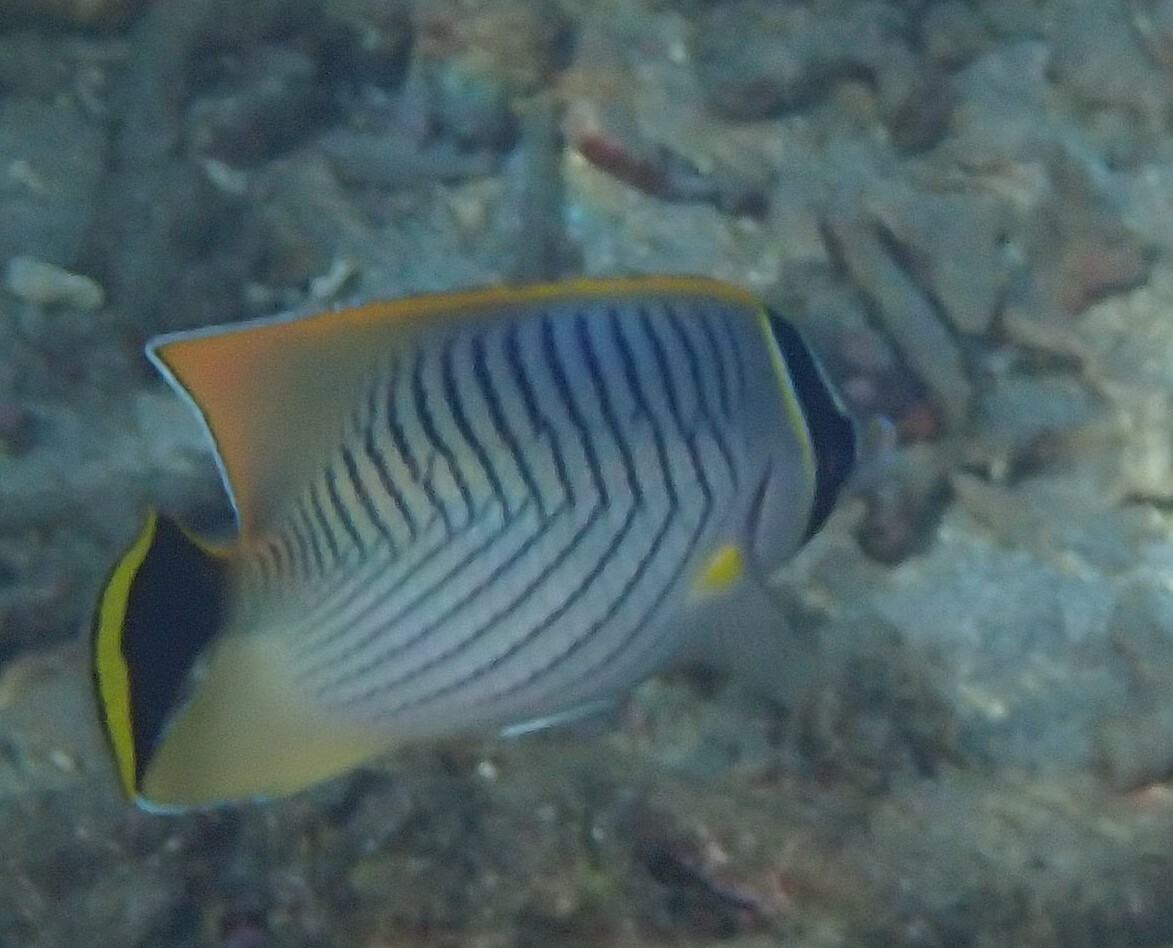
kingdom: Animalia
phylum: Chordata
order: Perciformes
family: Chaetodontidae
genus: Chaetodon
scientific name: Chaetodon trifascialis
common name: Chevroned butterflyfish
